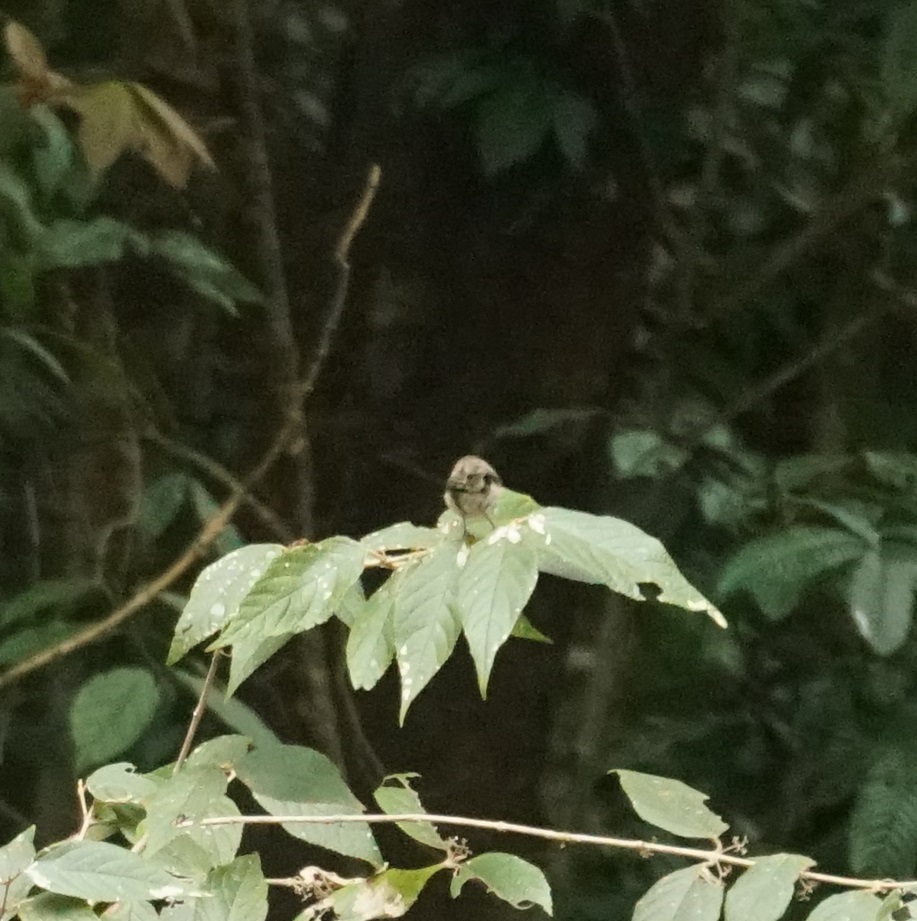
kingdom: Animalia
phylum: Chordata
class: Aves
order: Passeriformes
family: Acanthizidae
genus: Gerygone
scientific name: Gerygone mouki
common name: Brown gerygone
